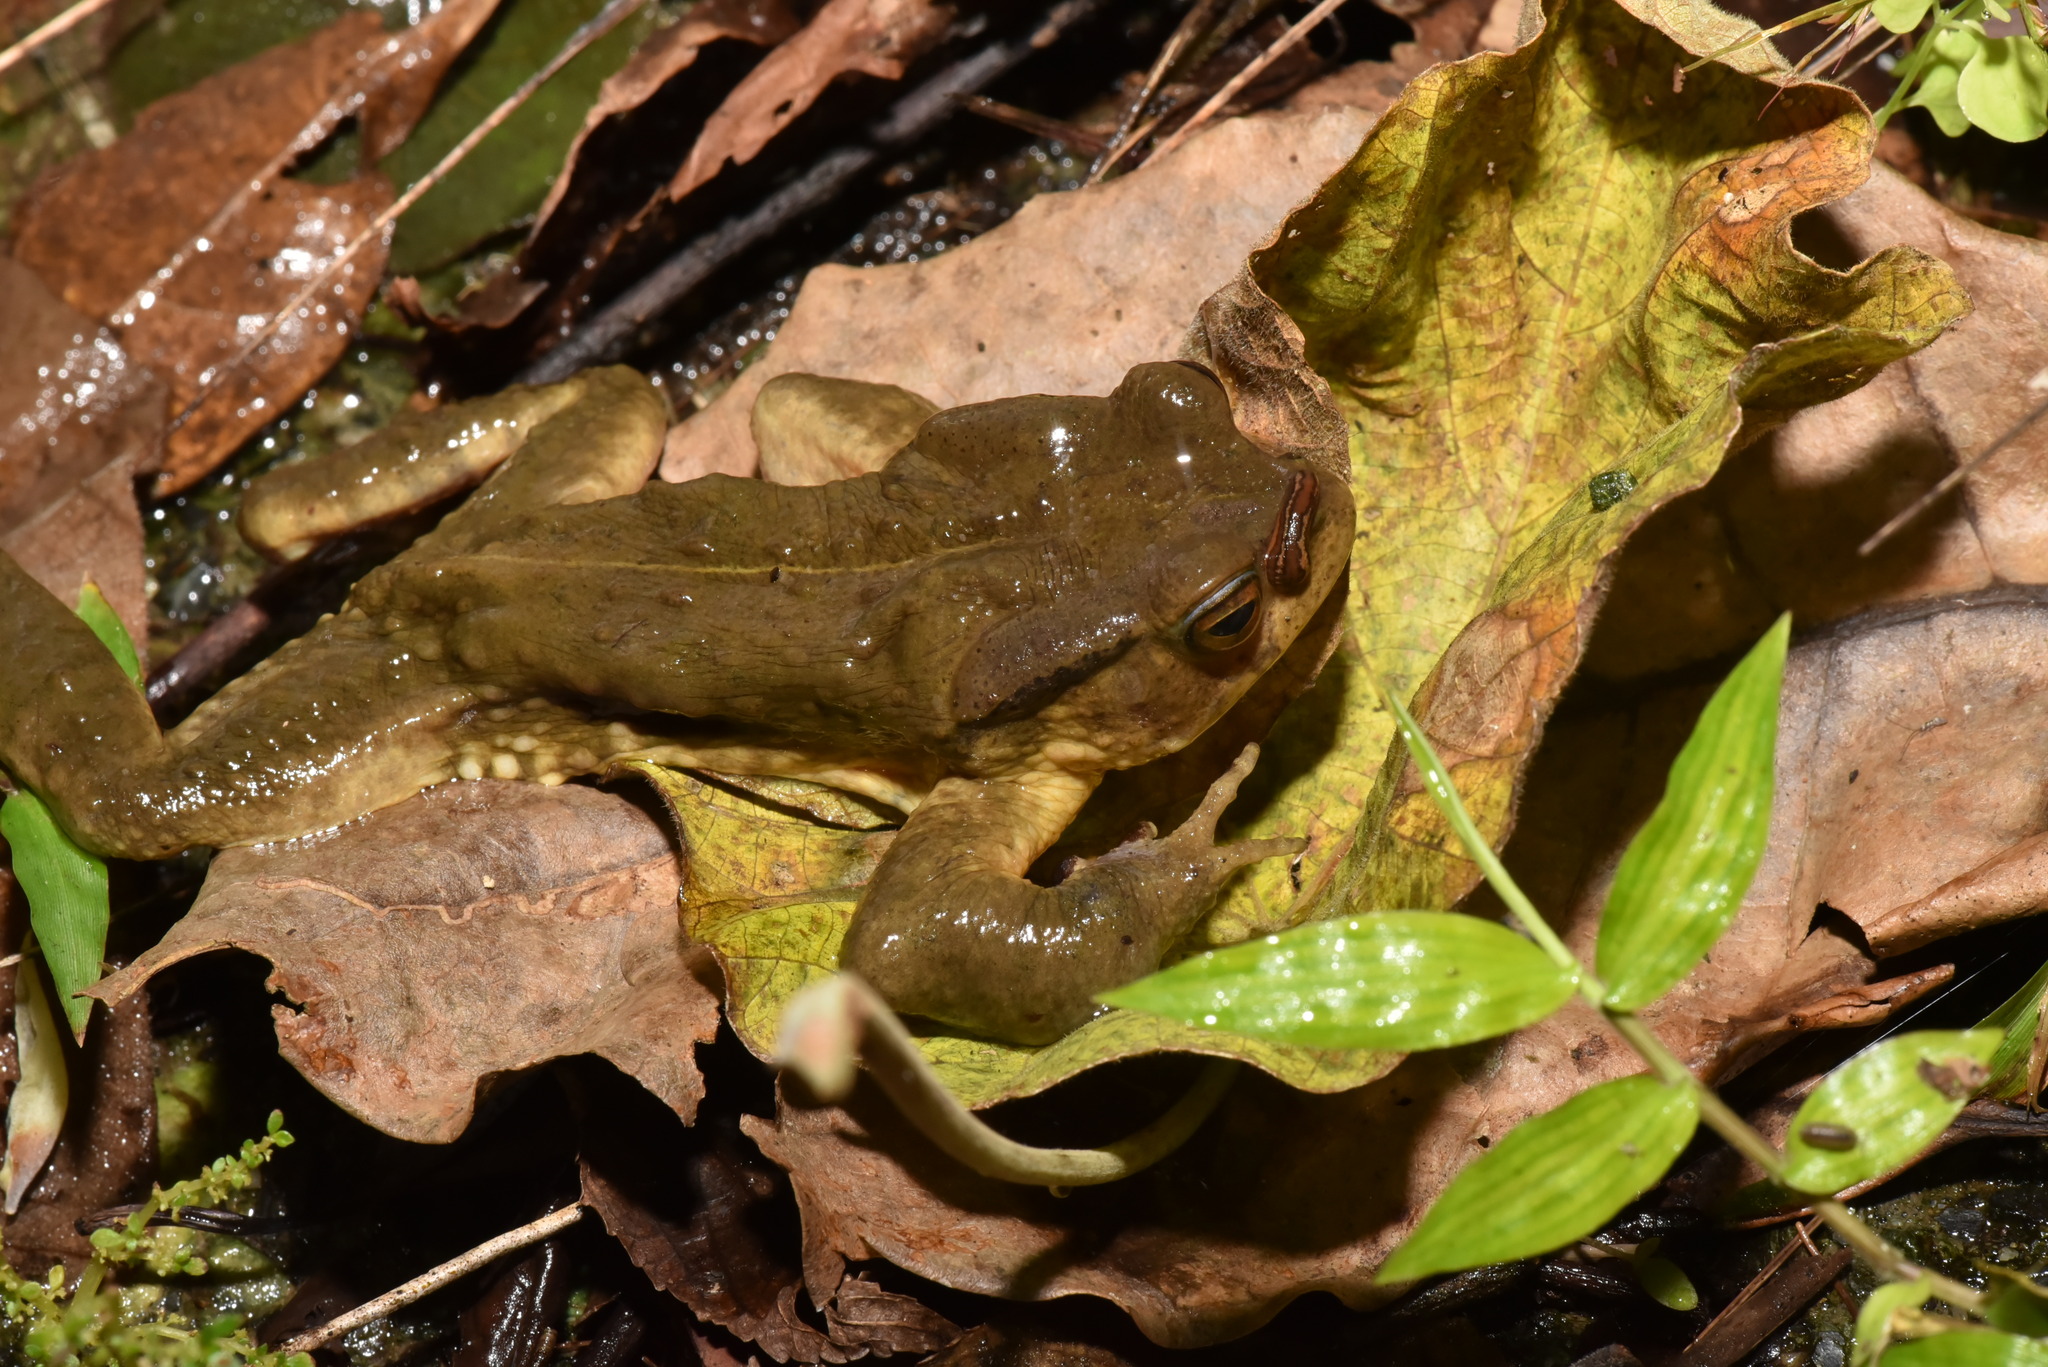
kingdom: Animalia
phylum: Chordata
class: Amphibia
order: Anura
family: Bufonidae
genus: Bufo
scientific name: Bufo bankorensis
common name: Bankor toad
